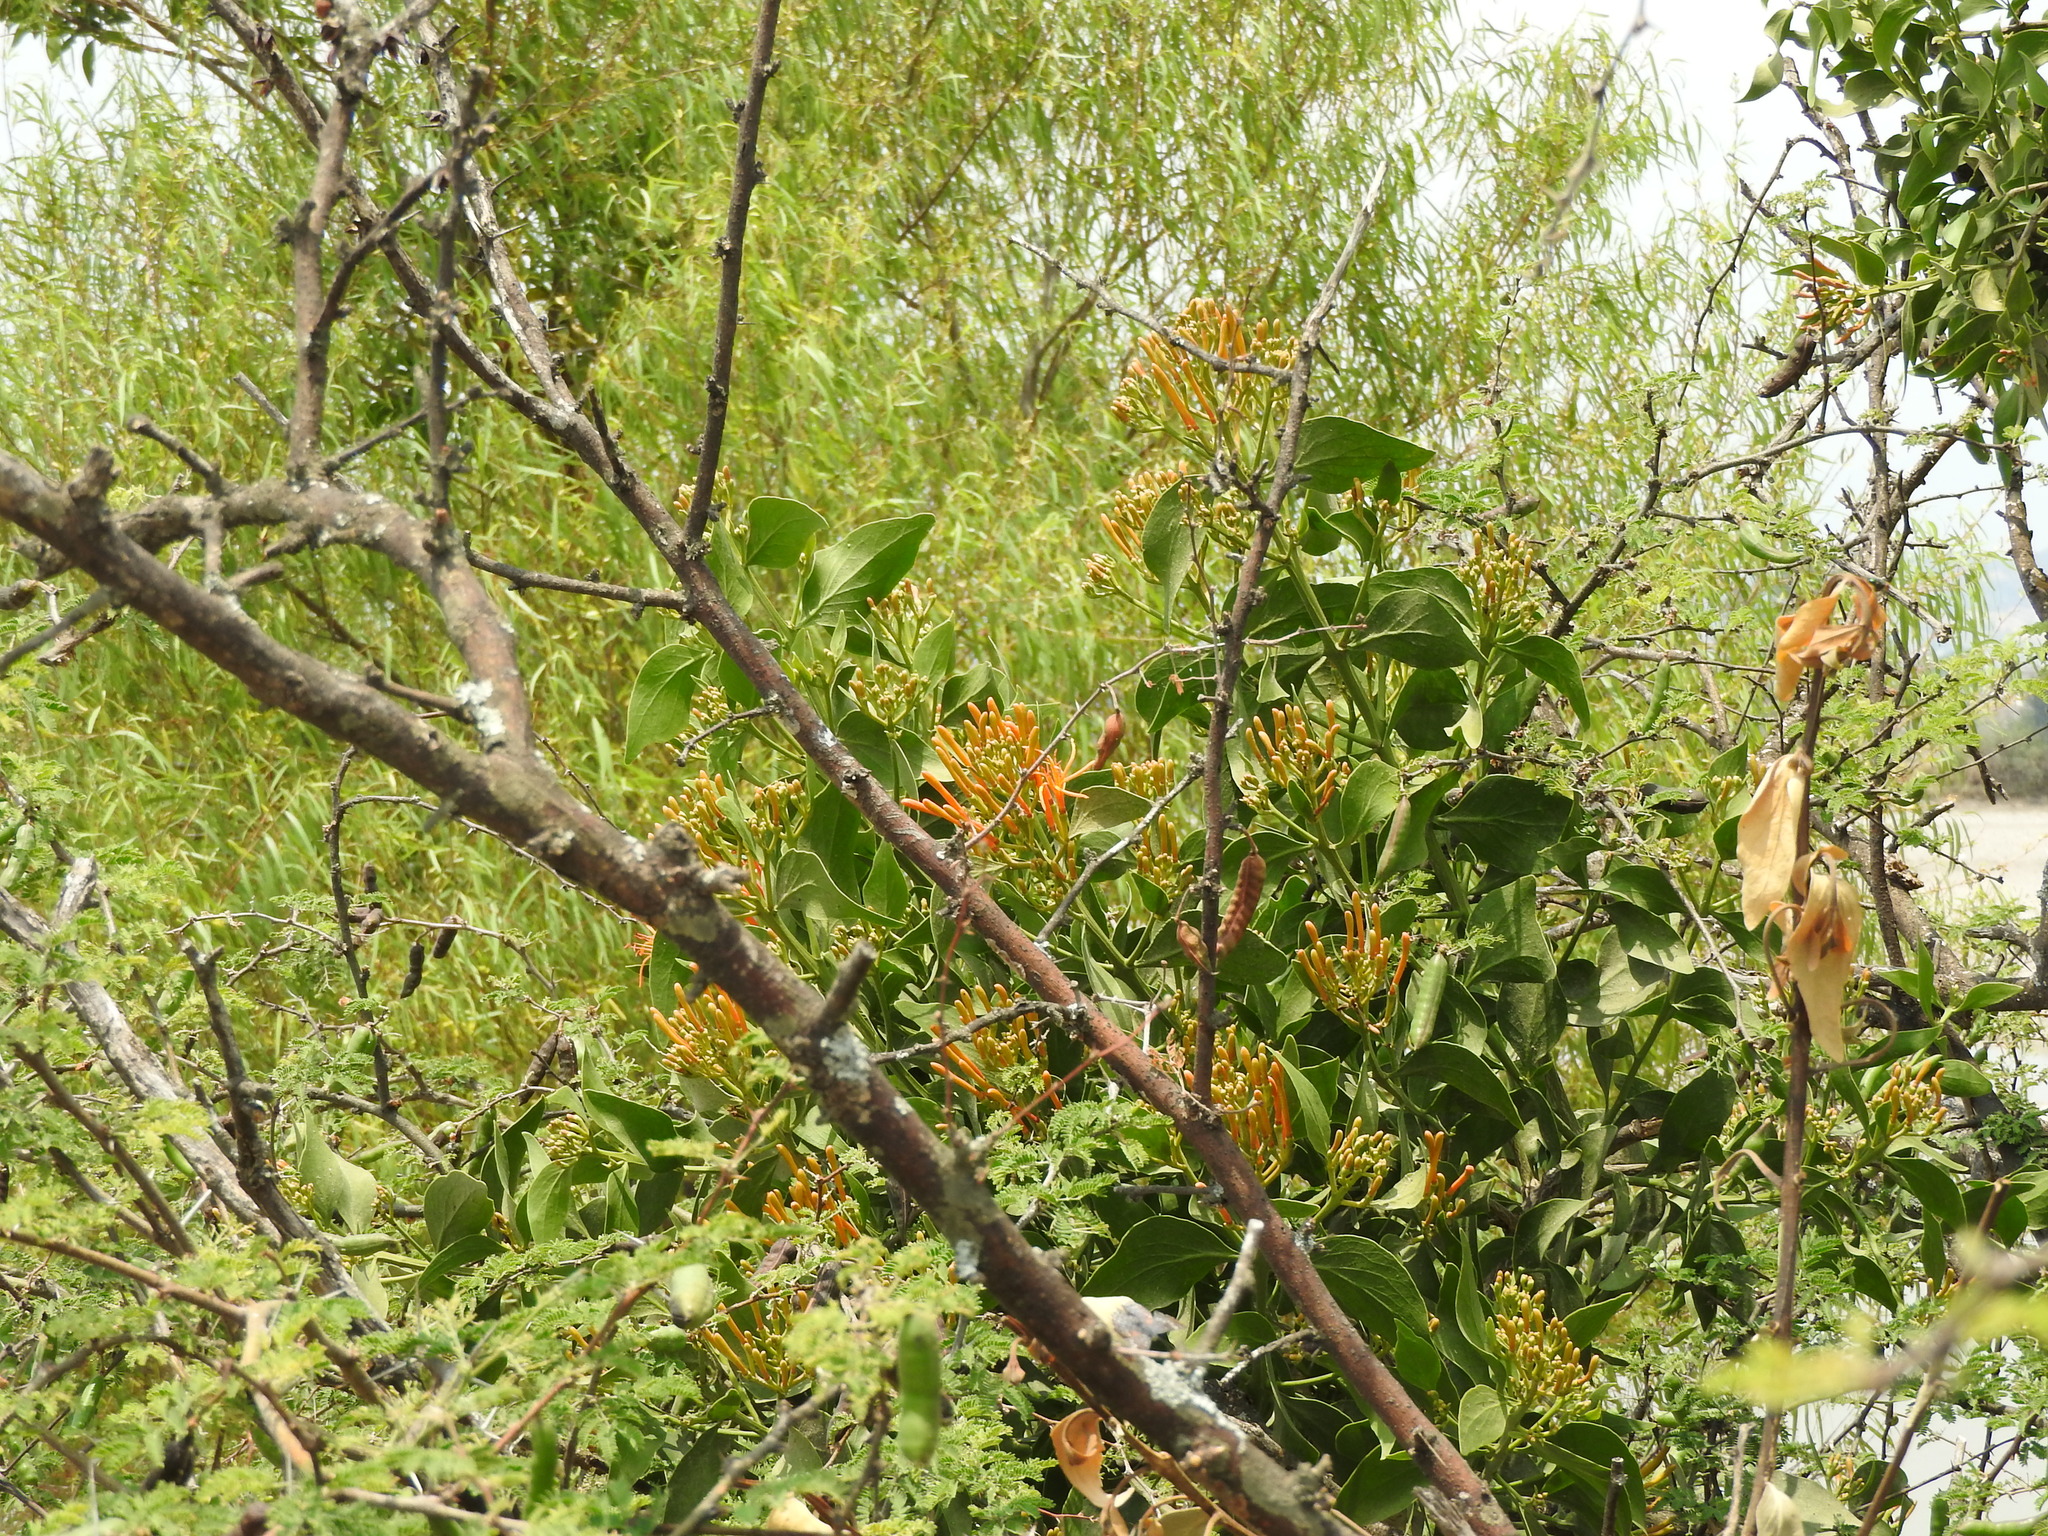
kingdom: Plantae
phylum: Tracheophyta
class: Magnoliopsida
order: Santalales
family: Loranthaceae
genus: Psittacanthus
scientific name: Psittacanthus calyculatus
